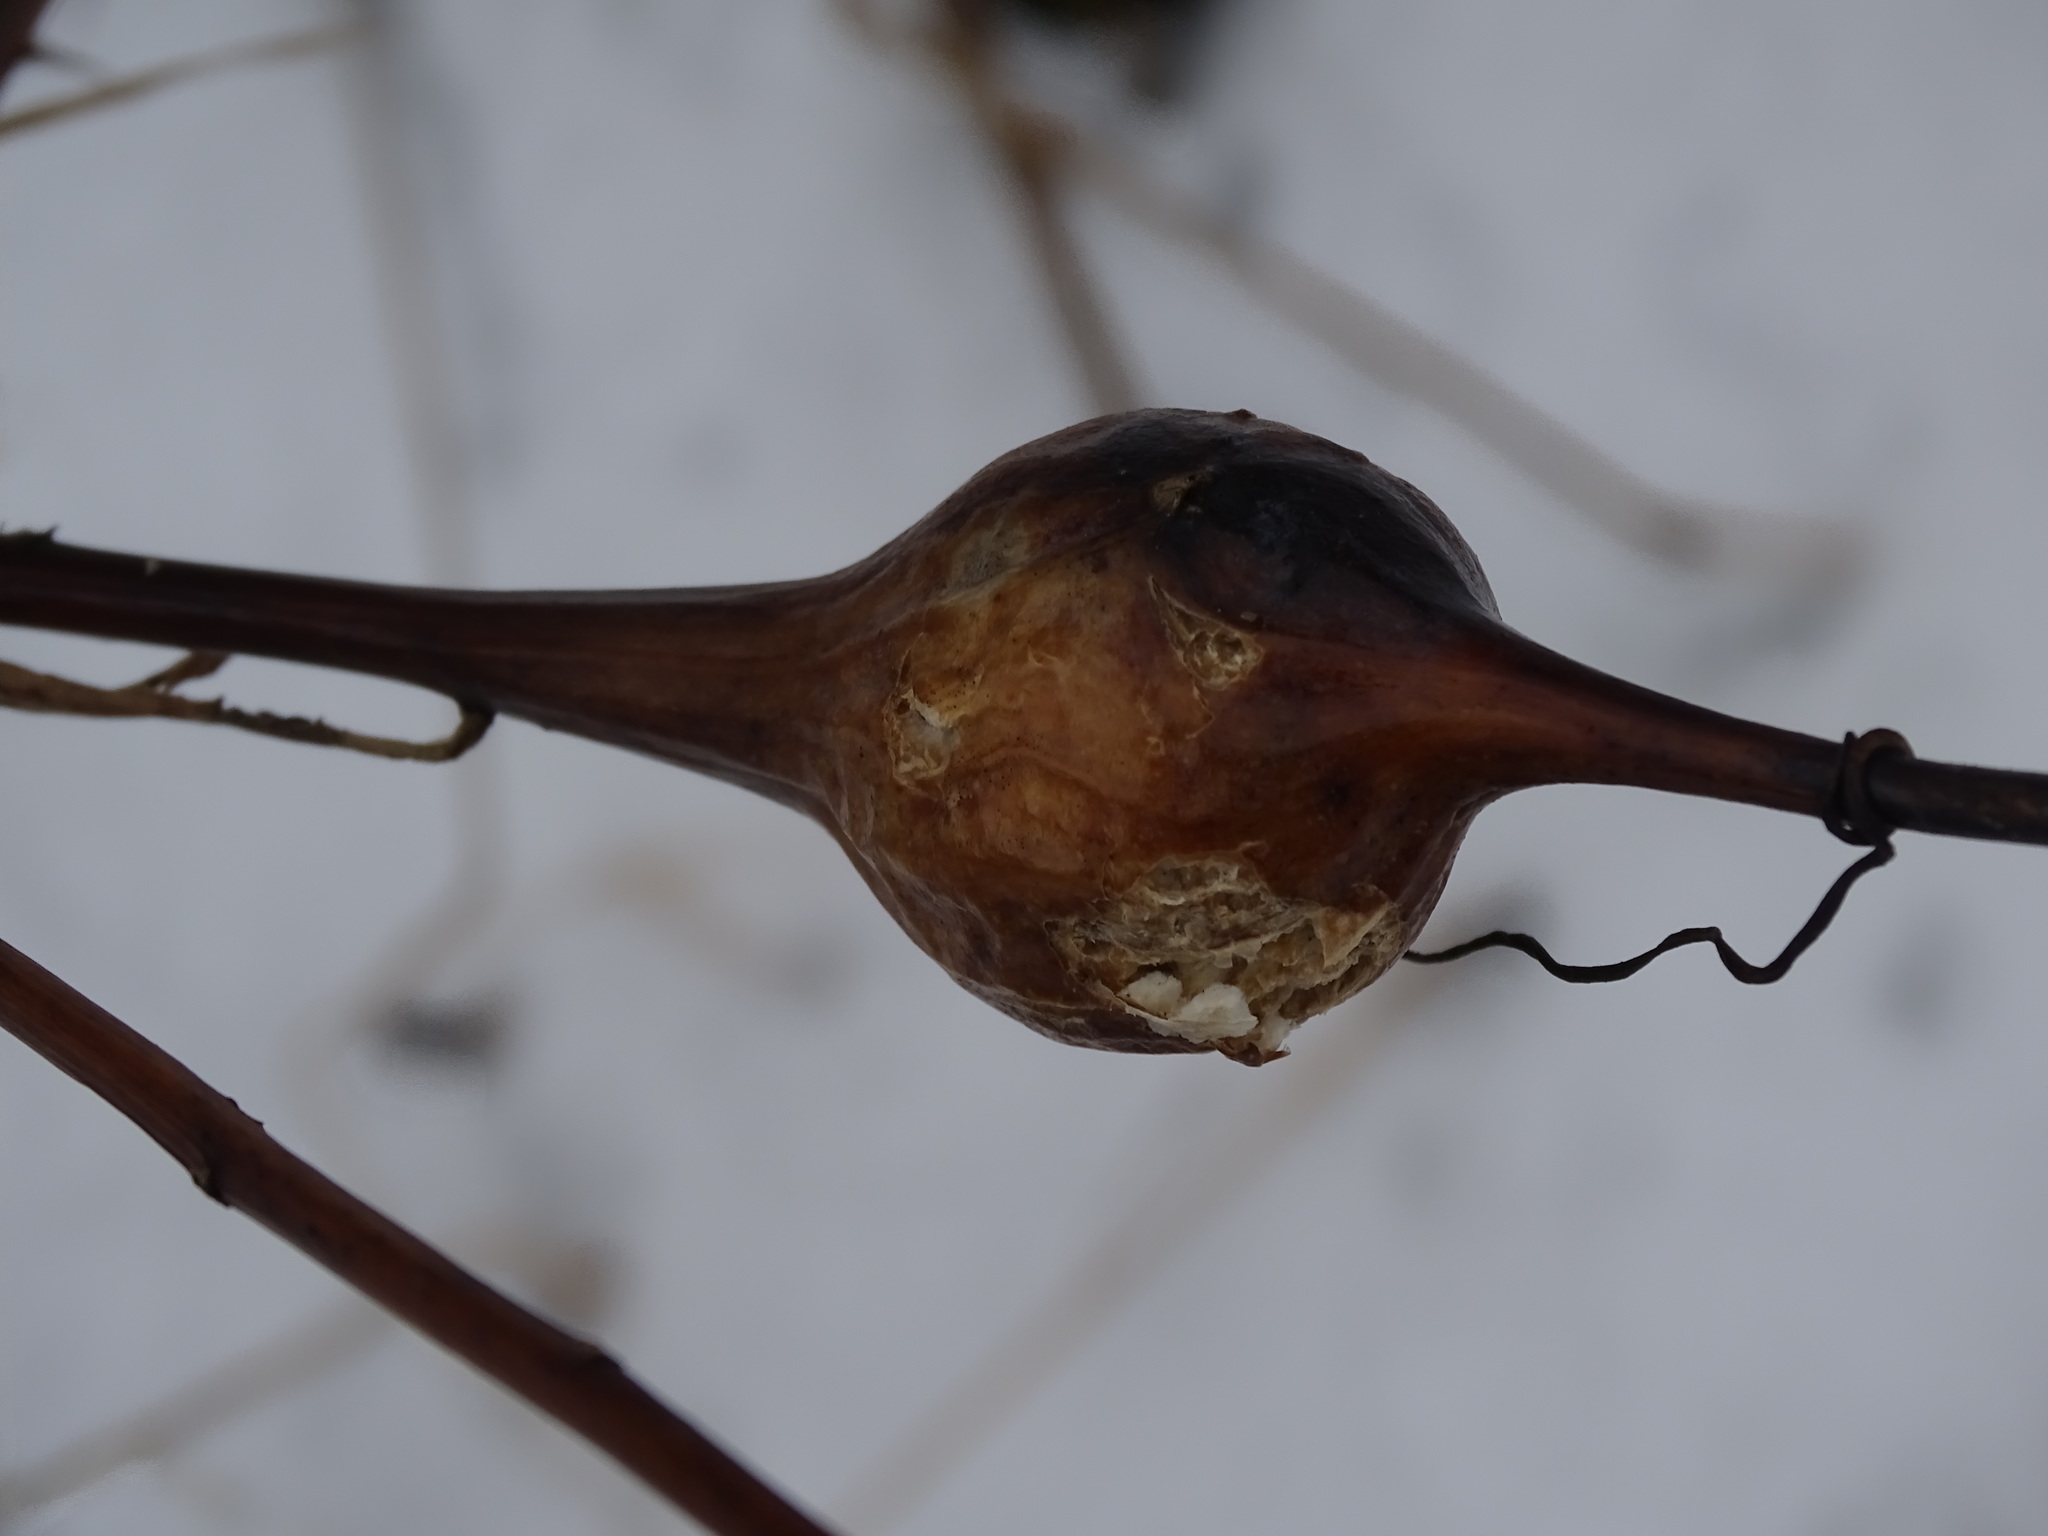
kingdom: Animalia
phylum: Arthropoda
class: Insecta
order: Diptera
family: Tephritidae
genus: Eurosta
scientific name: Eurosta solidaginis
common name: Goldenrod gall fly
